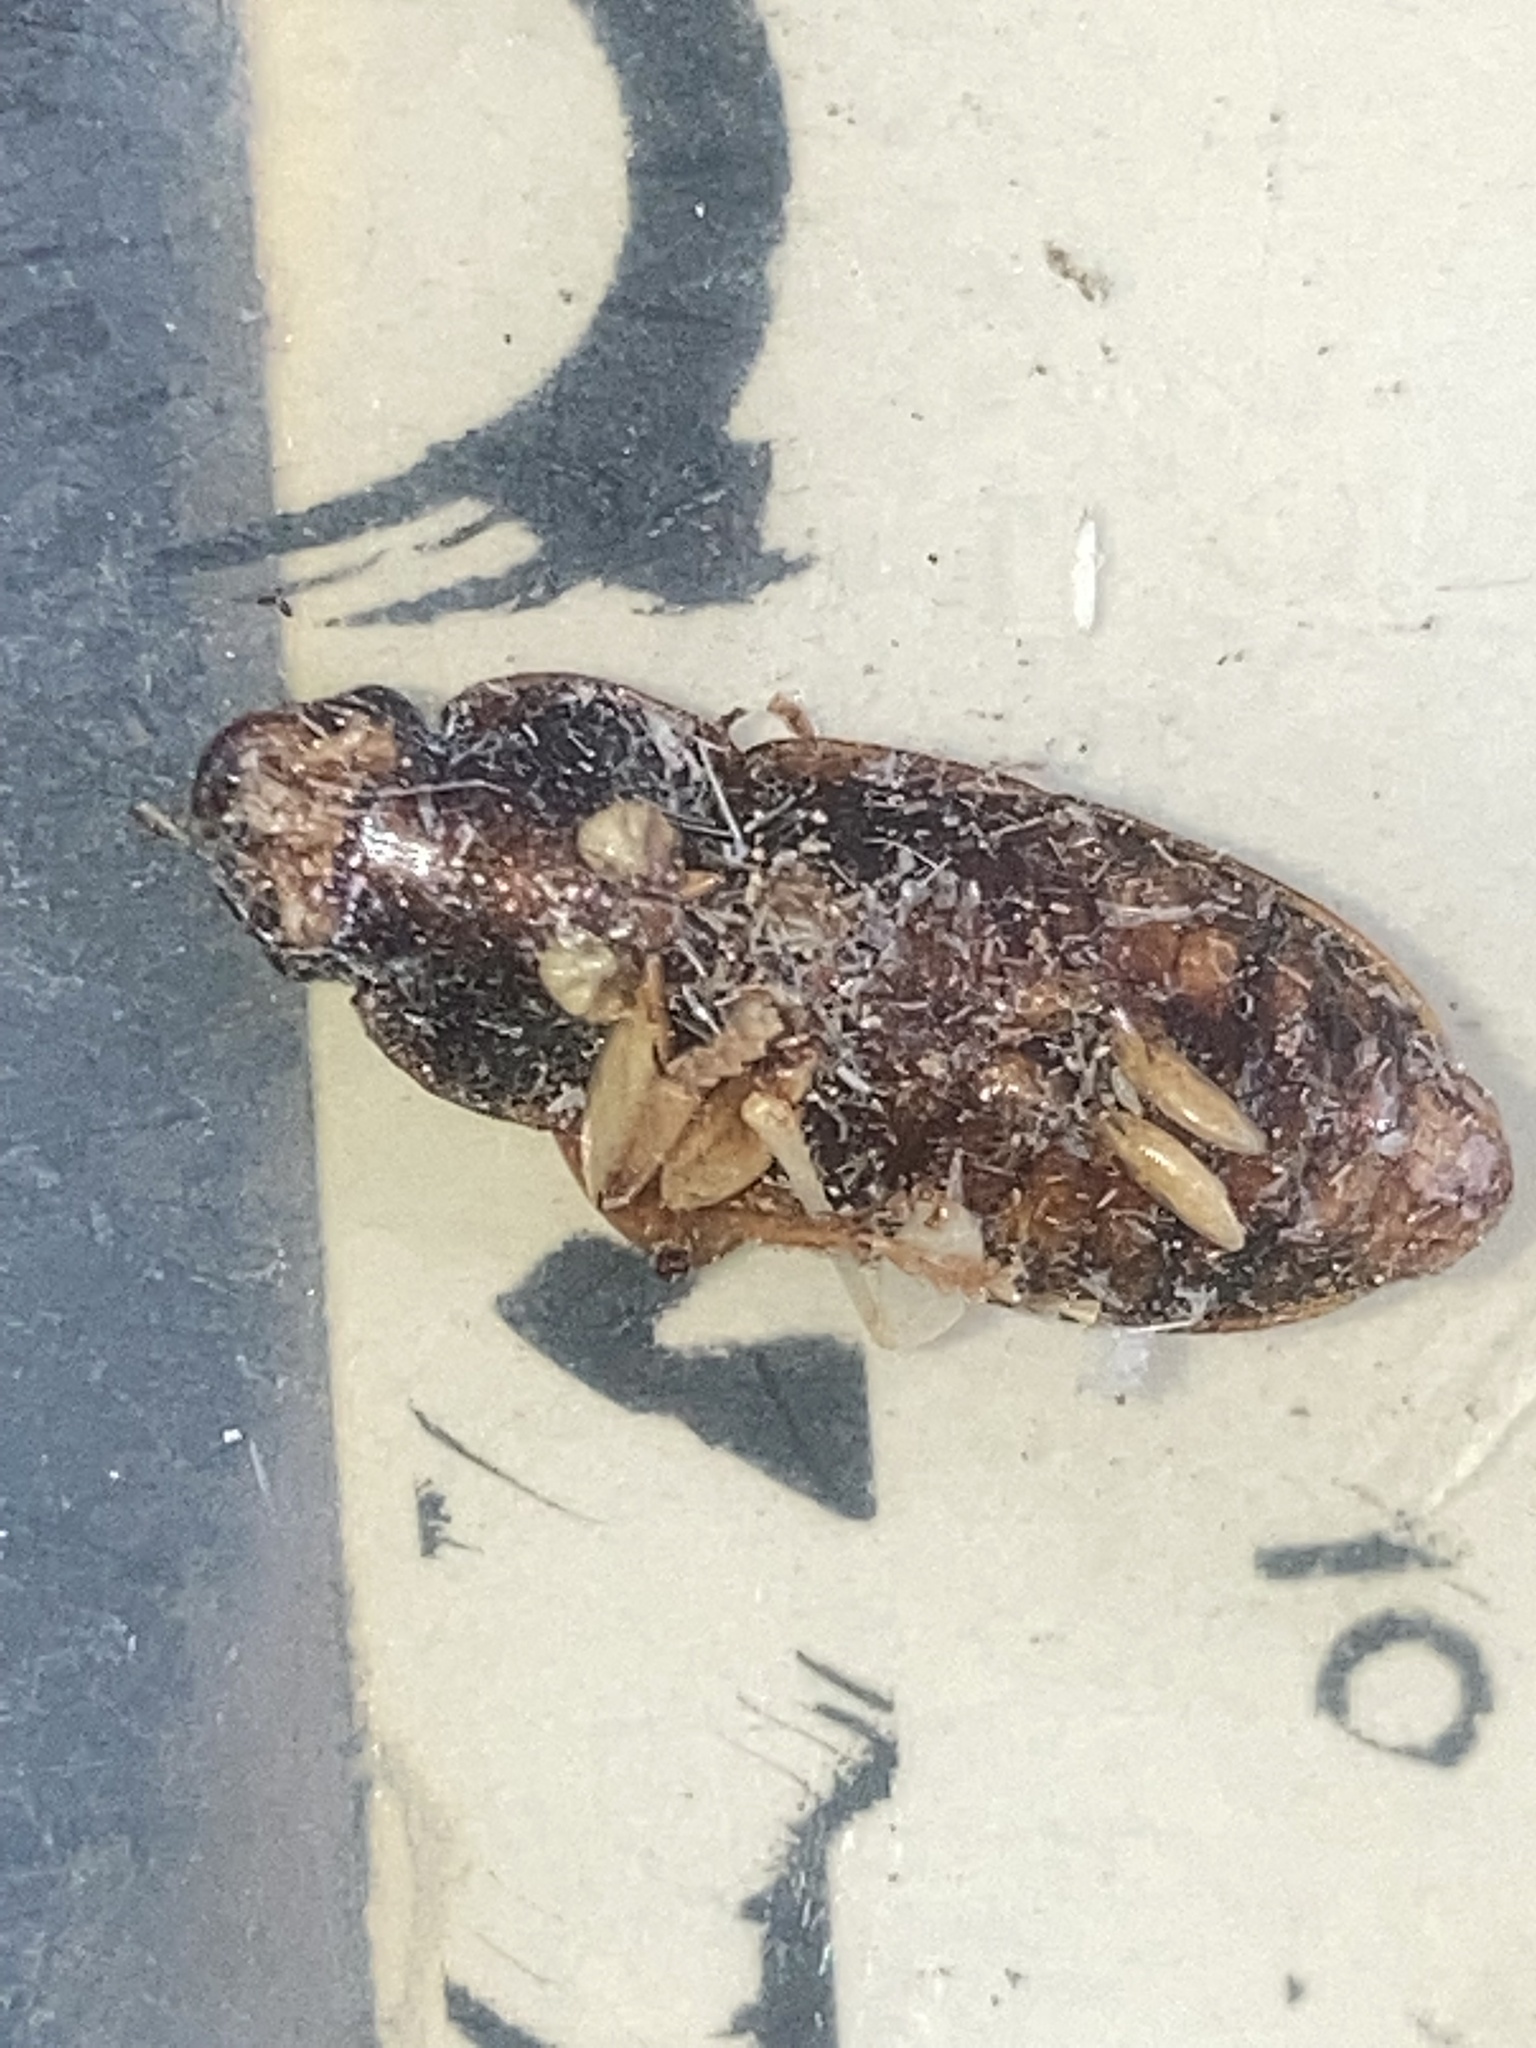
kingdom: Animalia
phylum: Arthropoda
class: Insecta
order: Coleoptera
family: Carabidae
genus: Harpalus
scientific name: Harpalus pensylvanicus
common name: Pennsylvania dingy ground beetle
